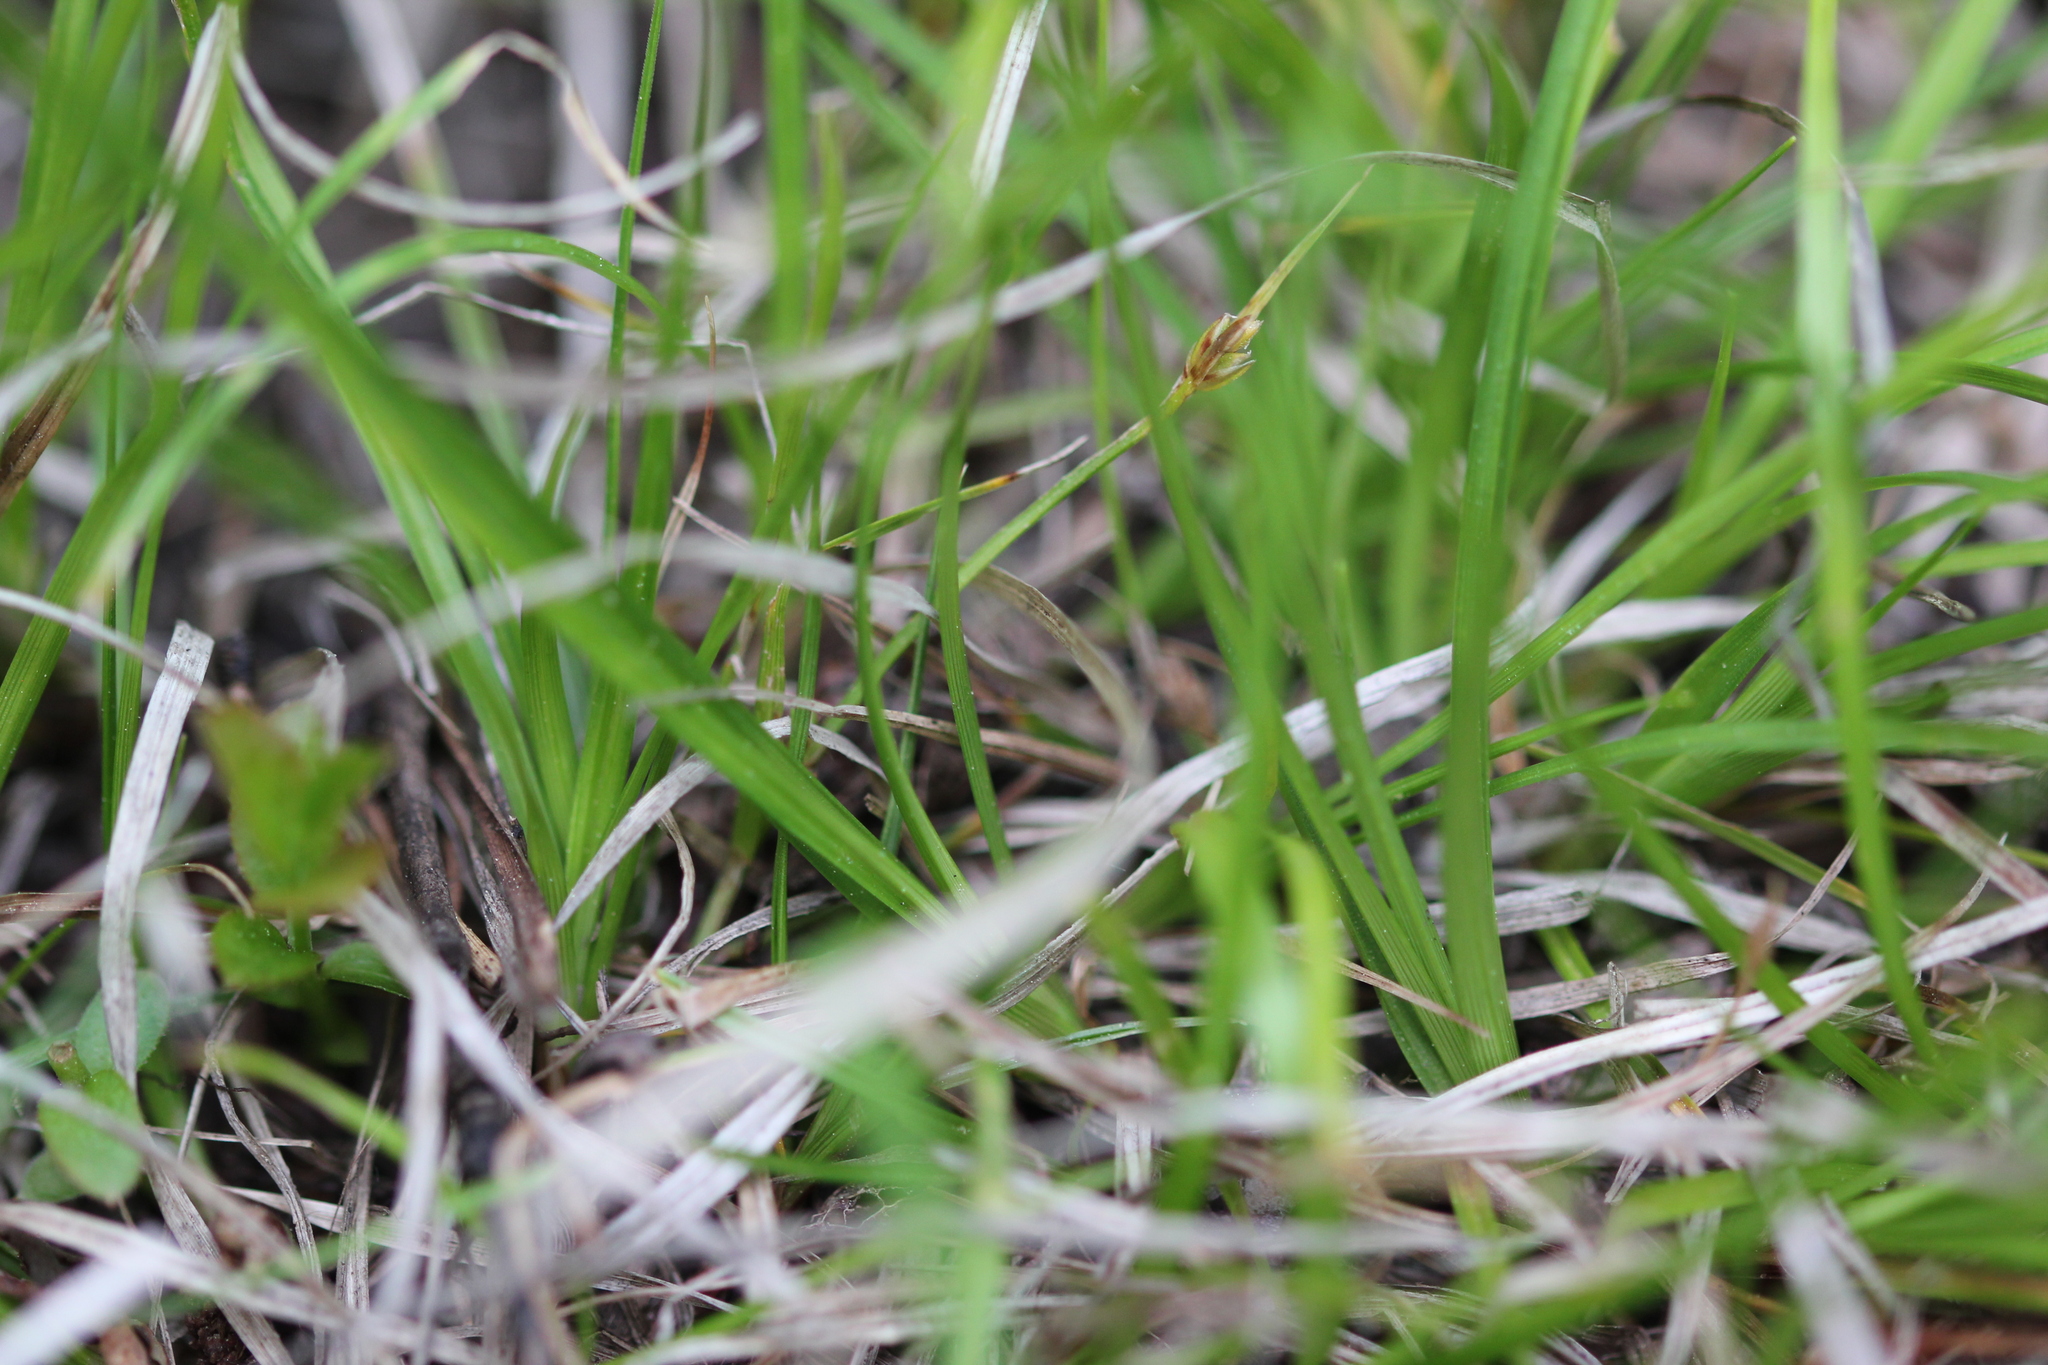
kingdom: Plantae
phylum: Tracheophyta
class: Liliopsida
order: Poales
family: Cyperaceae
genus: Carex
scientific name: Carex umbellata
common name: Early oak sedge
